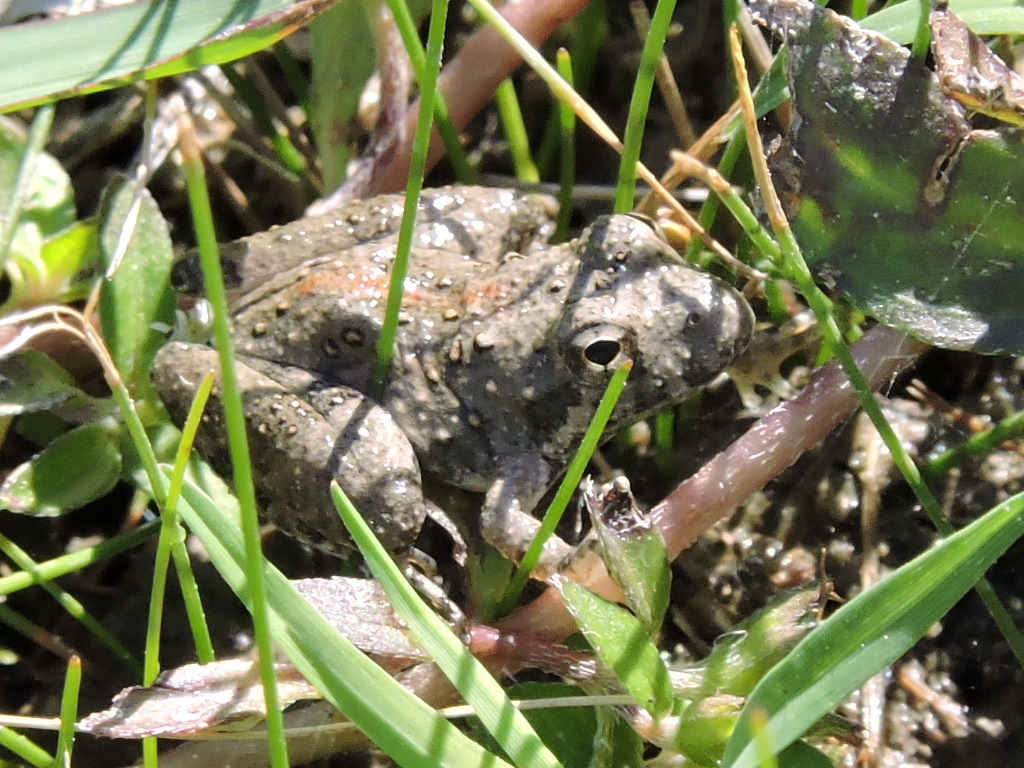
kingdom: Animalia
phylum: Chordata
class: Amphibia
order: Anura
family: Hylidae
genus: Acris
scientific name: Acris blanchardi
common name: Blanchard's cricket frog
